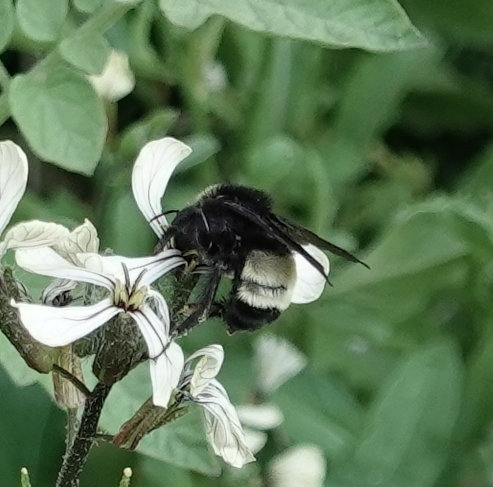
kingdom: Animalia
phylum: Arthropoda
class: Insecta
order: Hymenoptera
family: Apidae
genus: Bombus
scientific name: Bombus pensylvanicus
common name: Bumble bee
